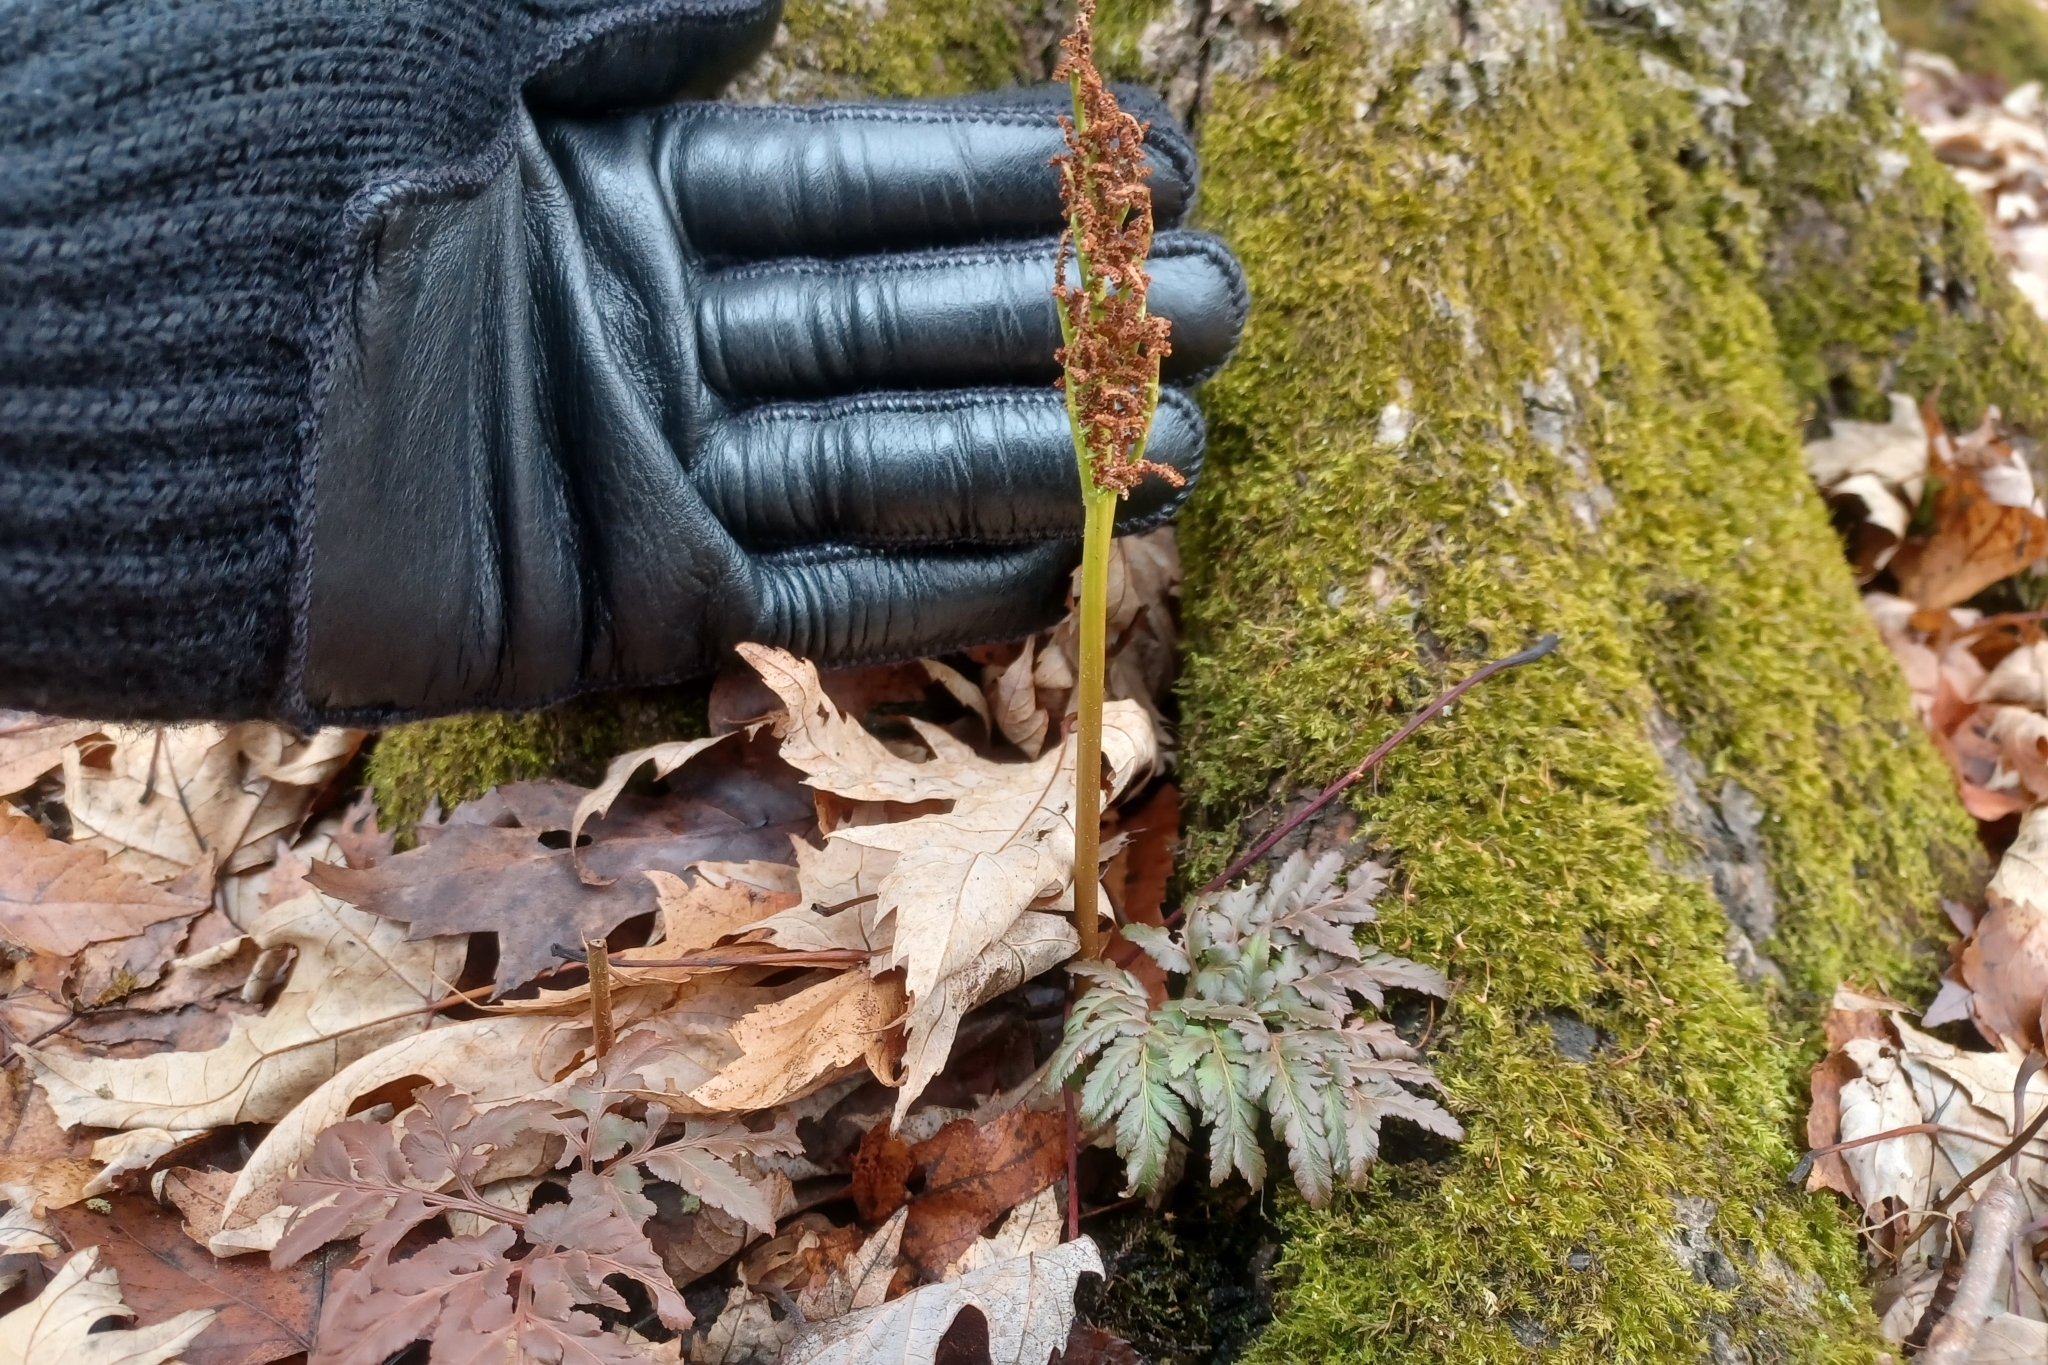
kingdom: Plantae
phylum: Tracheophyta
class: Polypodiopsida
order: Ophioglossales
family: Ophioglossaceae
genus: Sceptridium
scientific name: Sceptridium dissectum
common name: Cut-leaved grapefern
